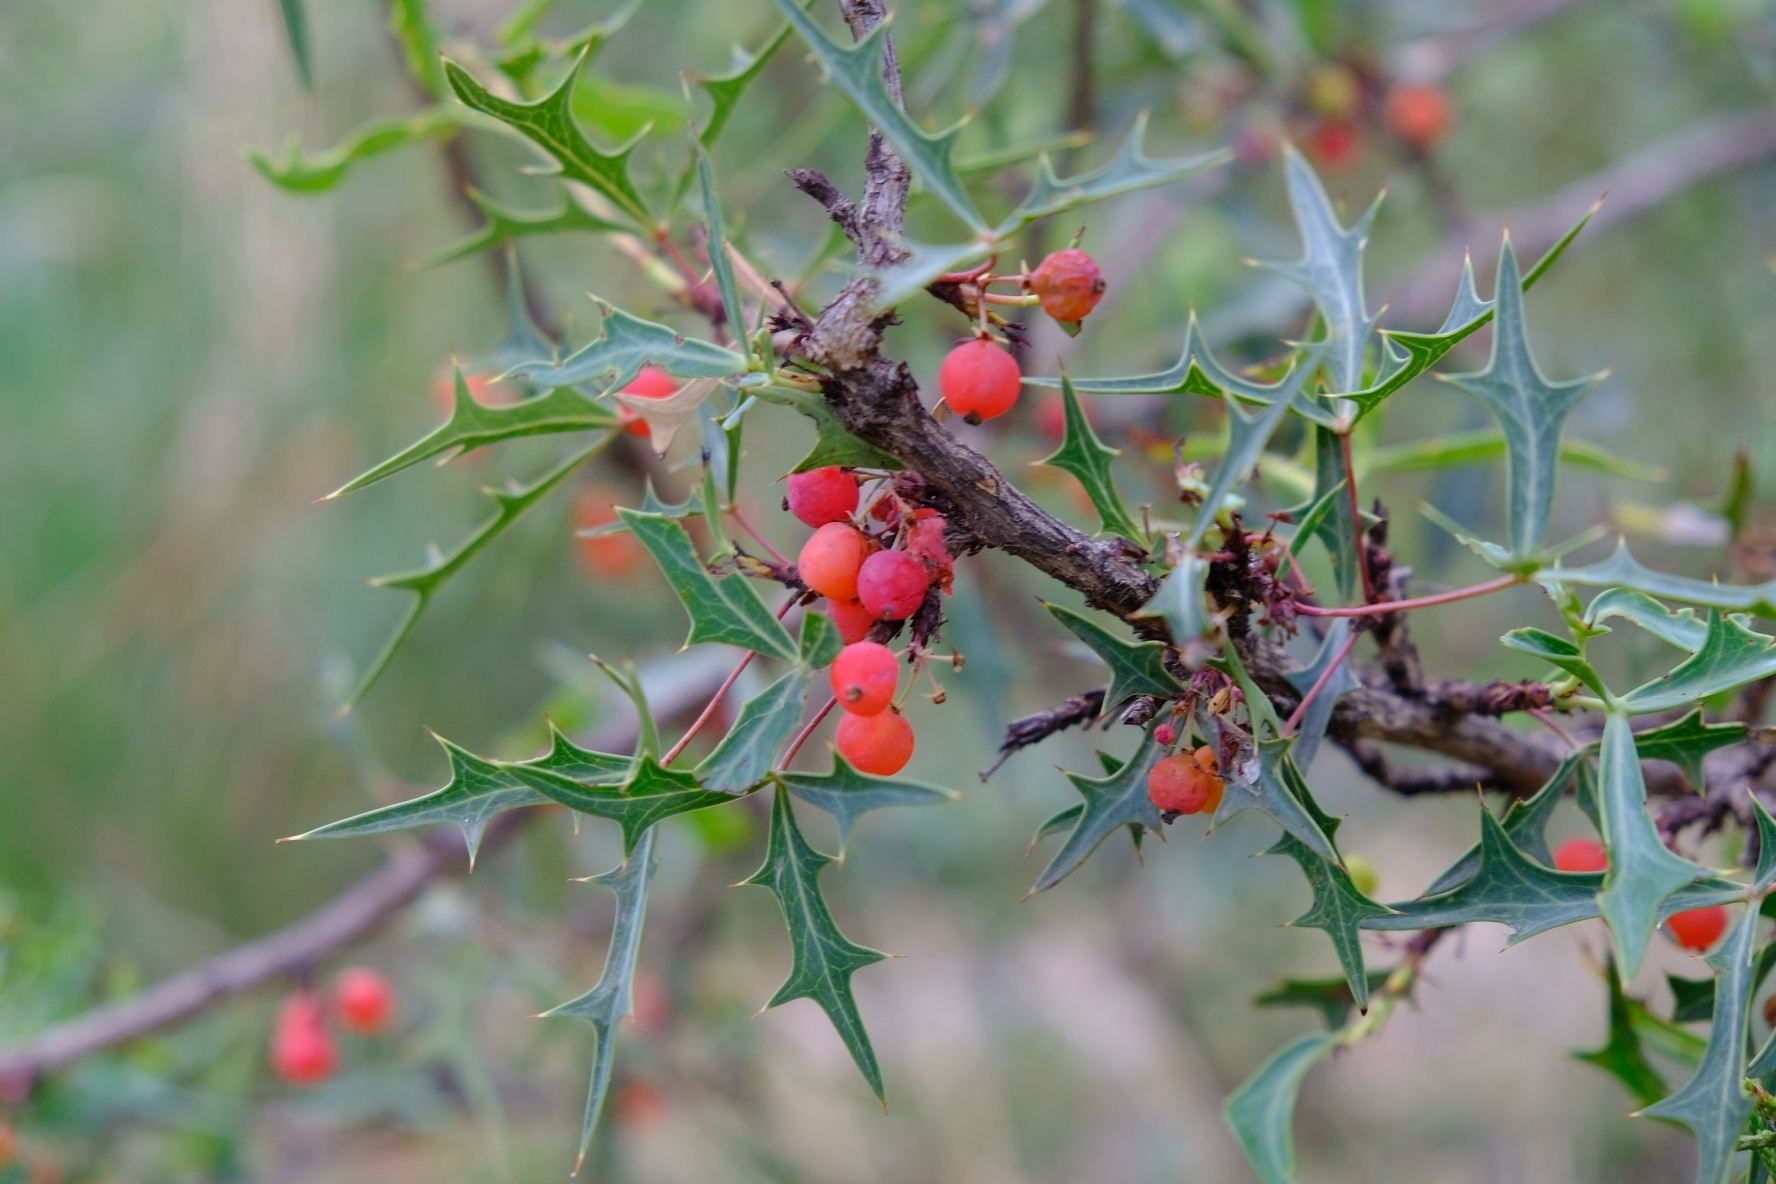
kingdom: Plantae
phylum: Tracheophyta
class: Magnoliopsida
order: Ranunculales
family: Berberidaceae
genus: Alloberberis
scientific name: Alloberberis trifoliolata
